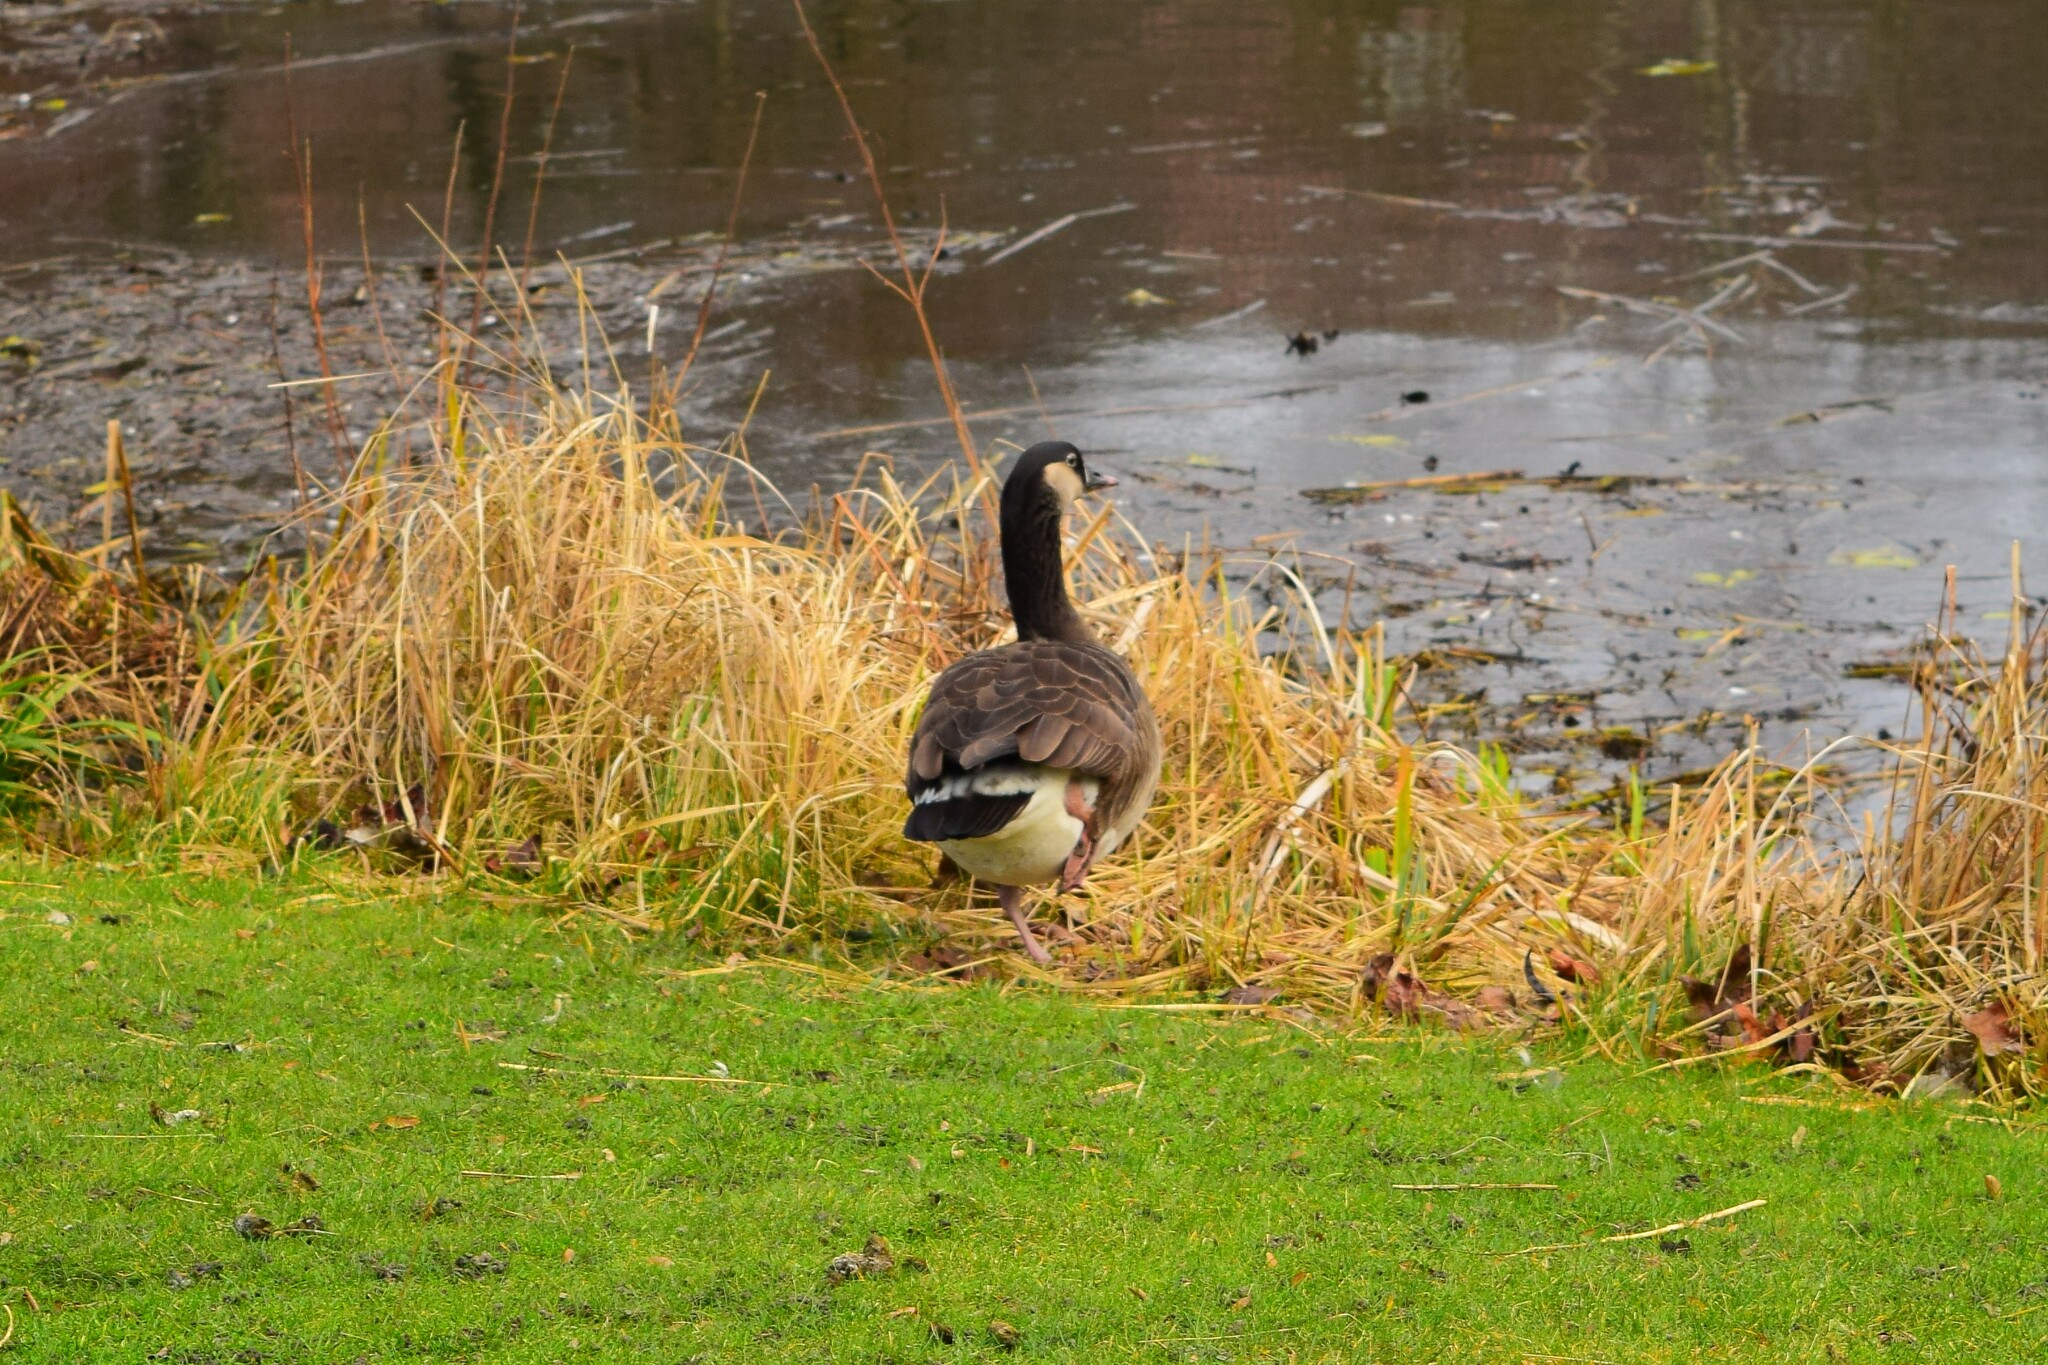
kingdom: Animalia
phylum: Chordata
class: Aves
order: Anseriformes
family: Anatidae
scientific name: Anatidae
